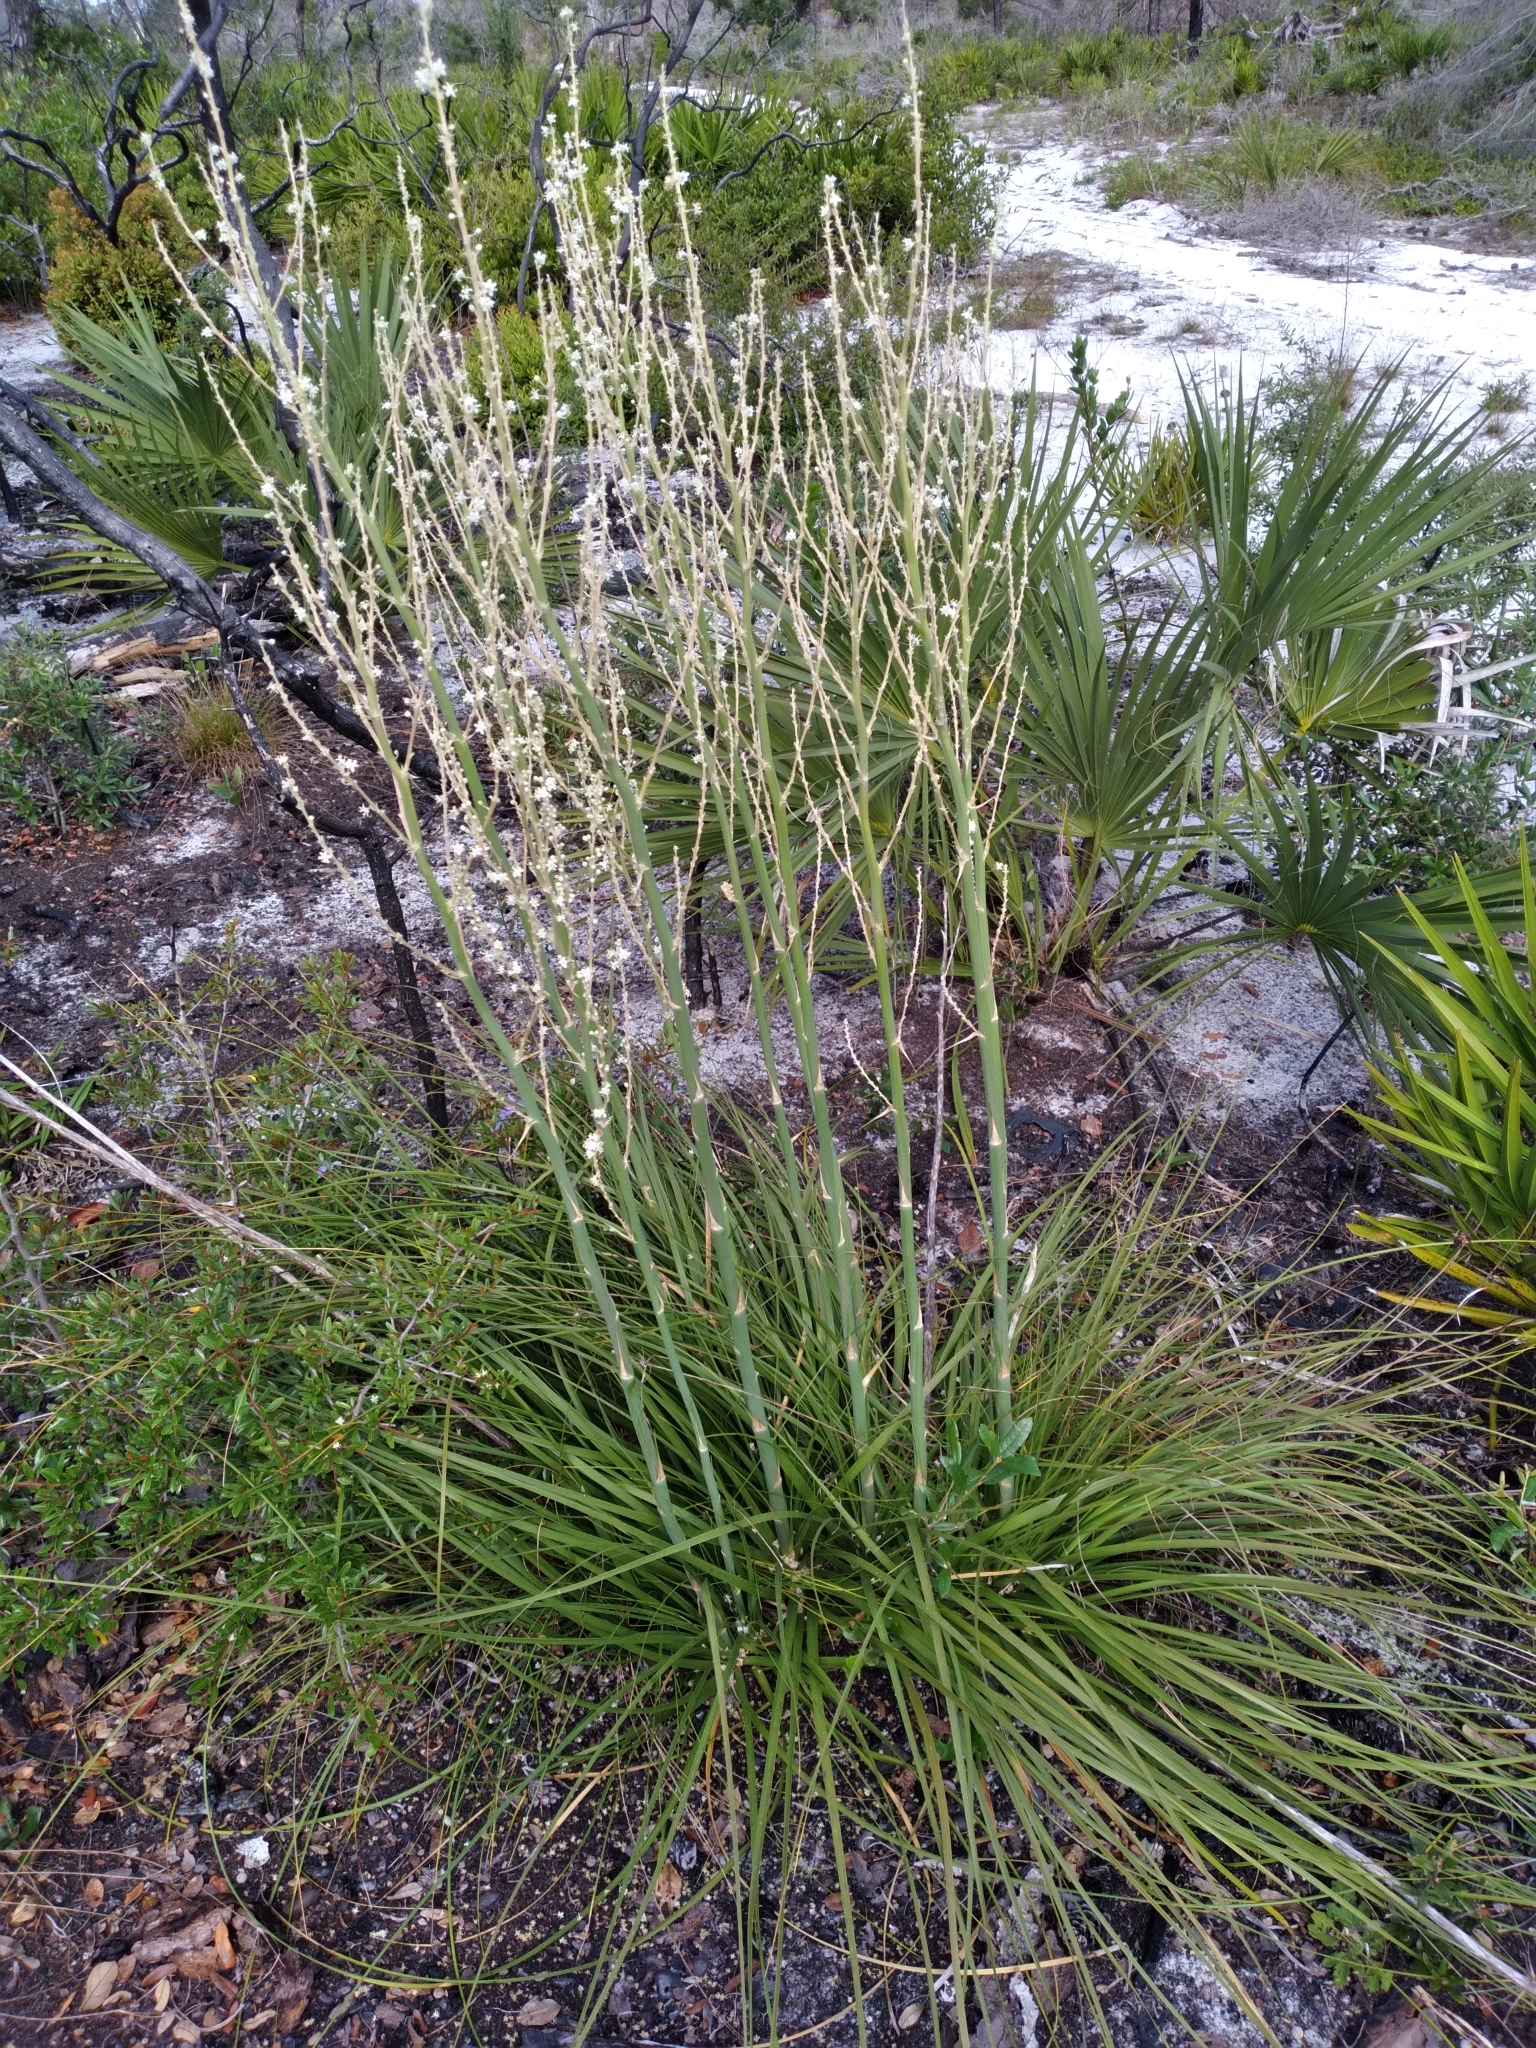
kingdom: Plantae
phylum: Tracheophyta
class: Liliopsida
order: Asparagales
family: Asparagaceae
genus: Nolina
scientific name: Nolina brittoniana
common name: Britton's bear-grass
